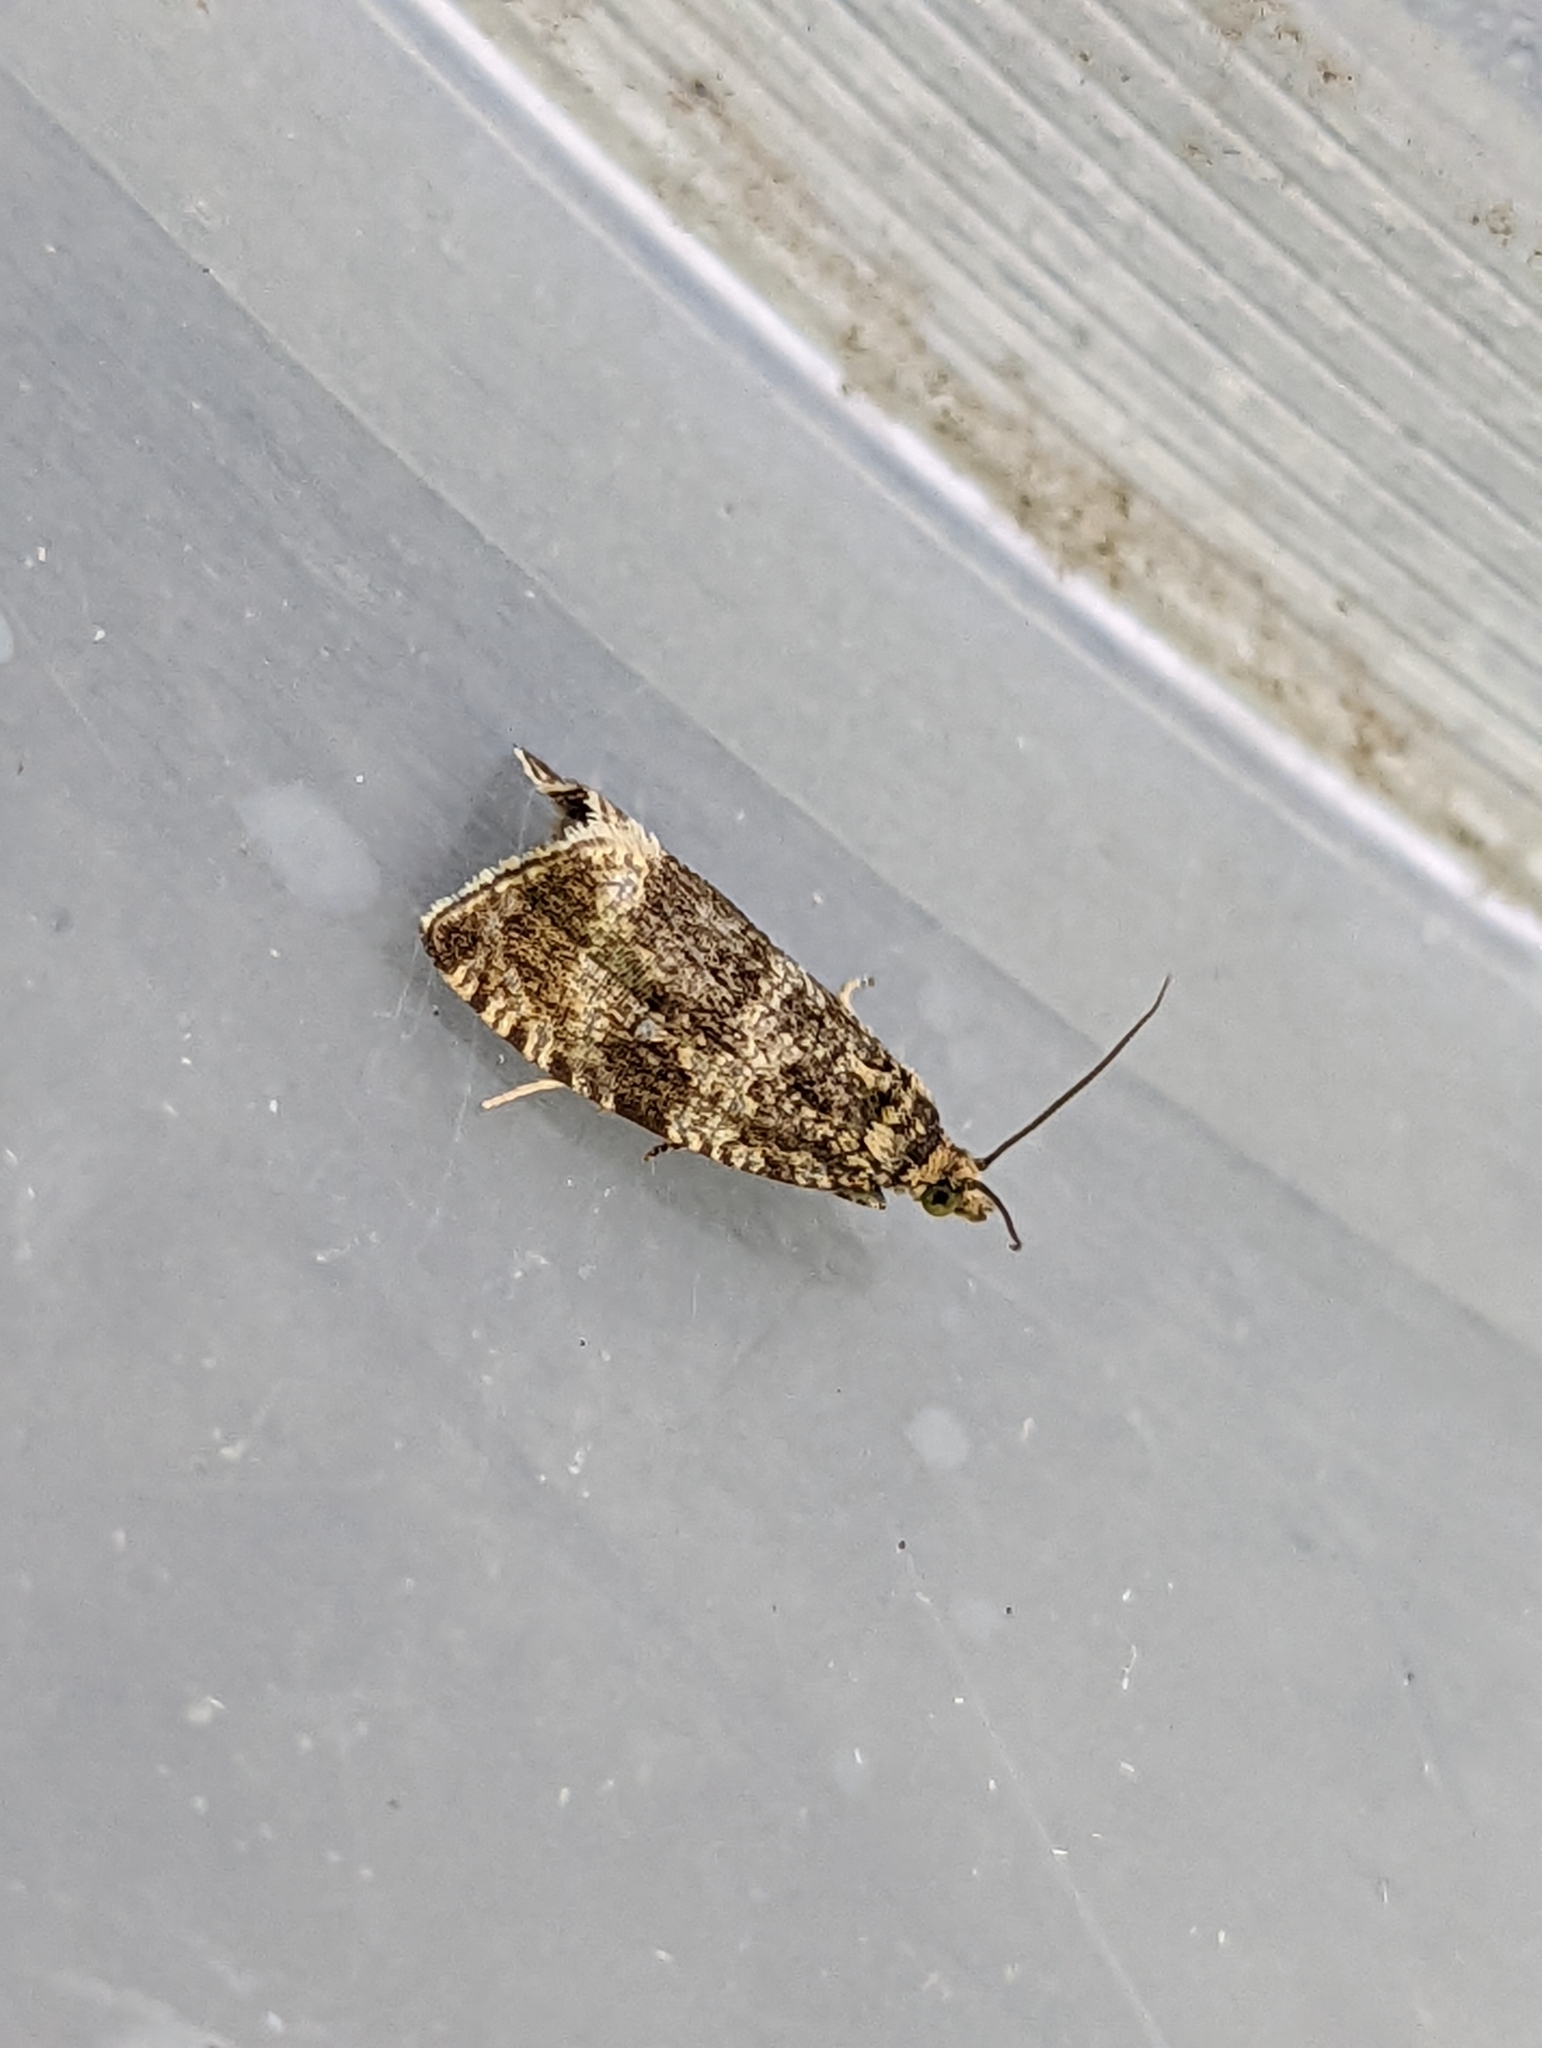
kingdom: Animalia
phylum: Arthropoda
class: Insecta
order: Lepidoptera
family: Tortricidae
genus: Syricoris
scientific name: Syricoris lacunana
